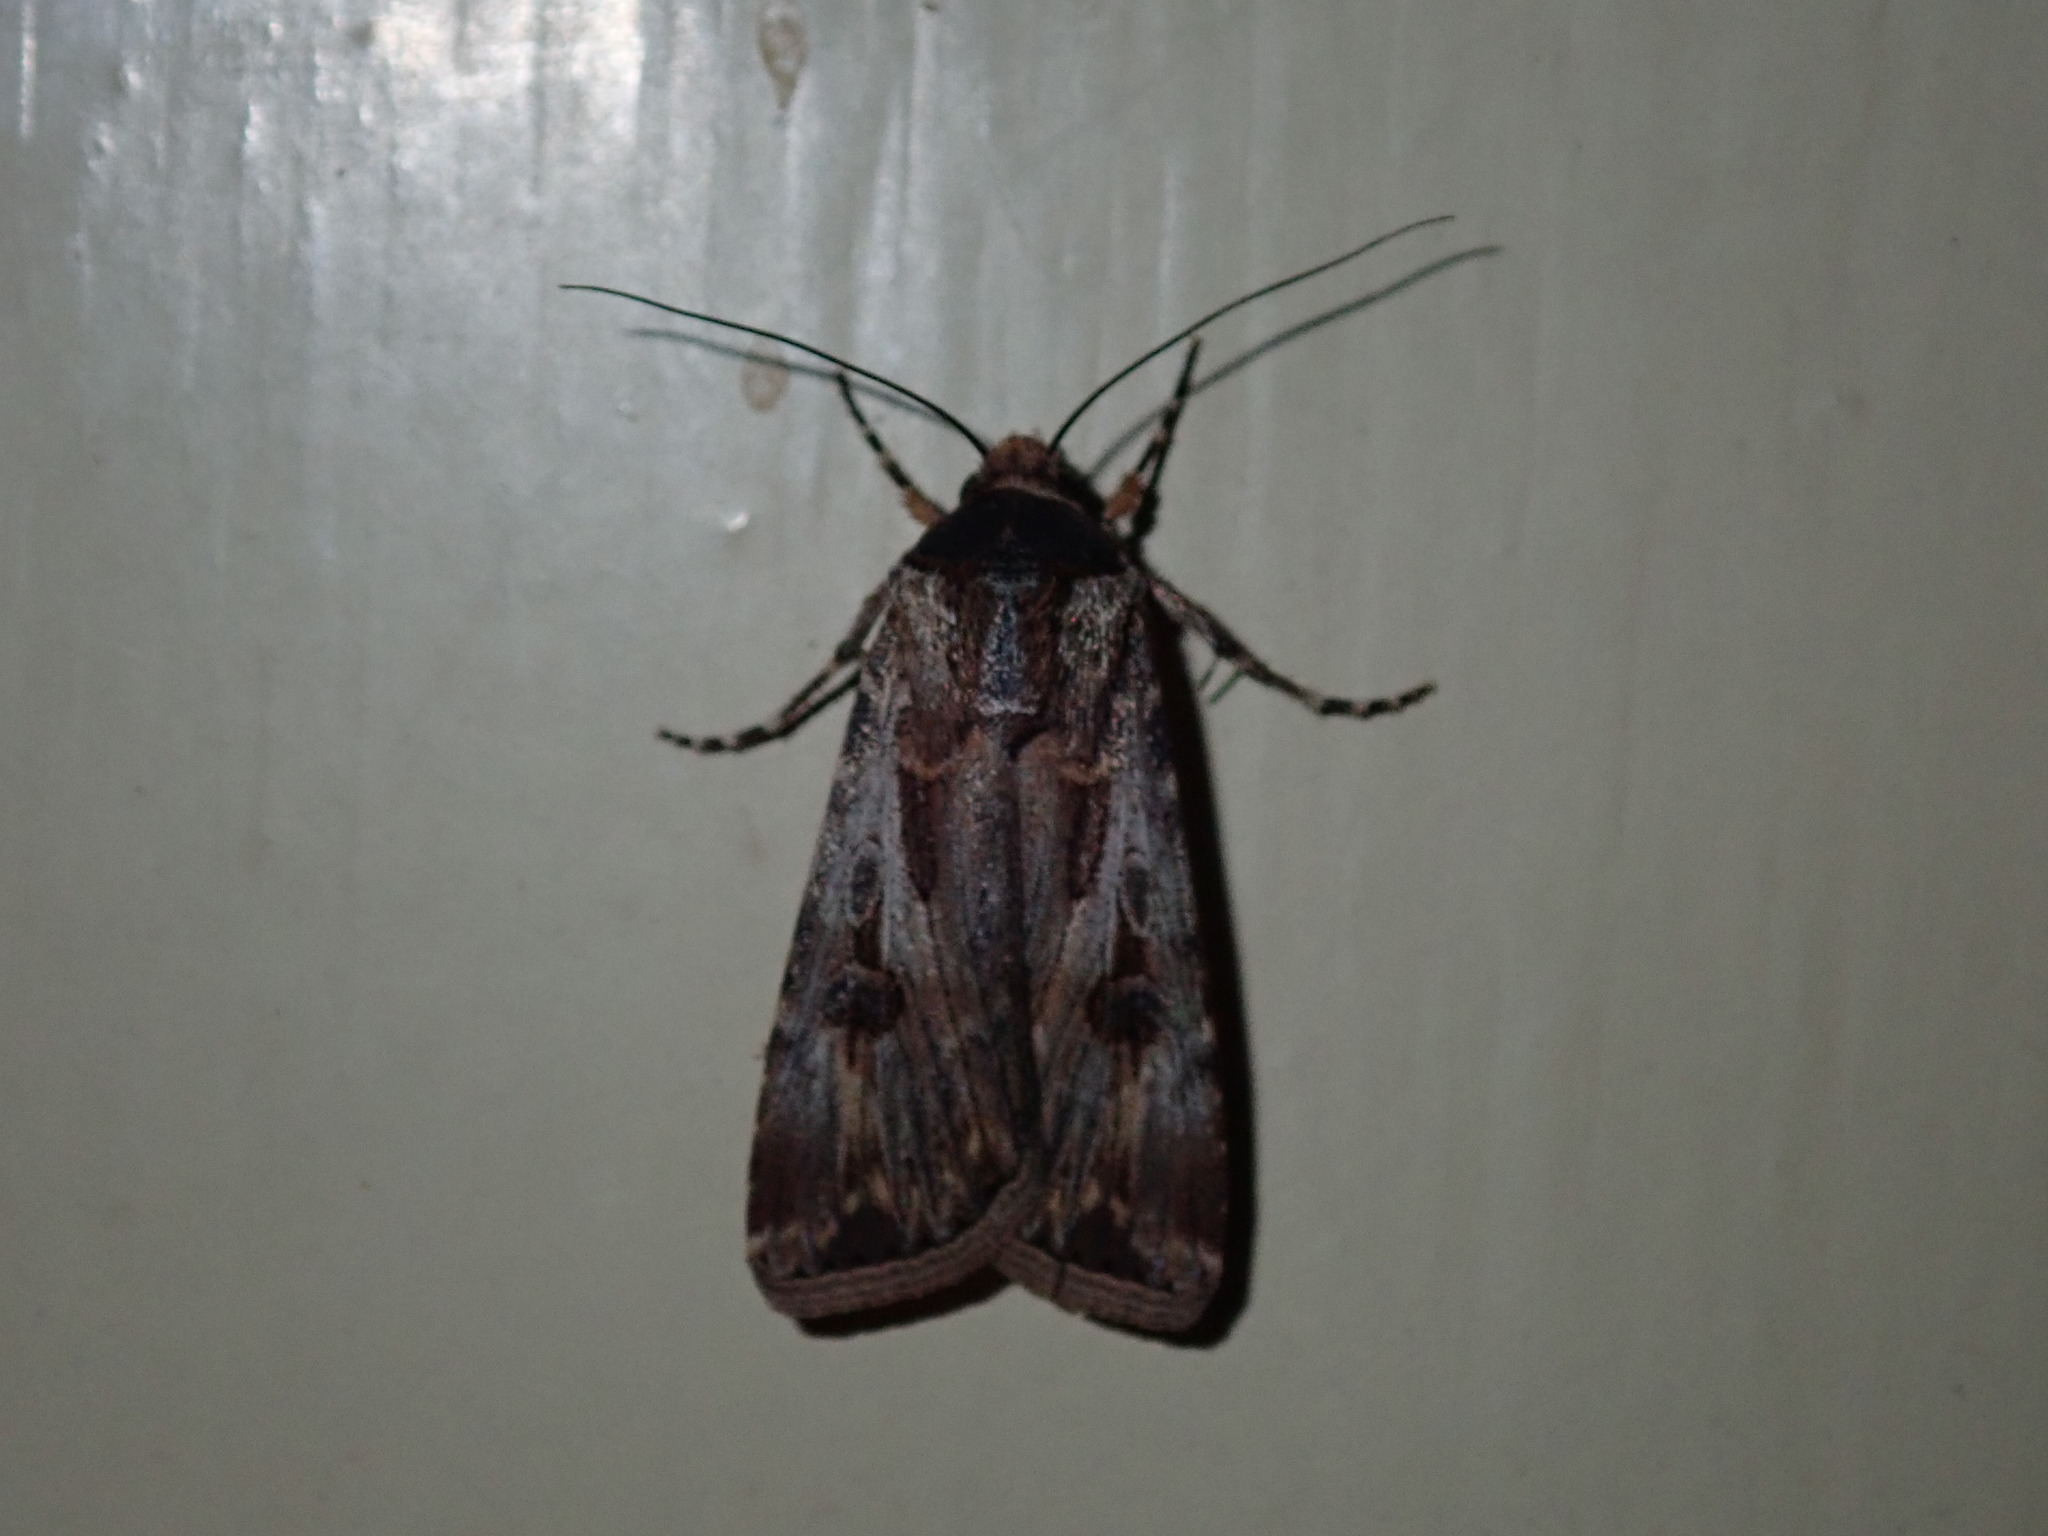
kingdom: Animalia
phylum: Arthropoda
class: Insecta
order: Lepidoptera
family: Noctuidae
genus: Agrotis
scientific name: Agrotis munda
